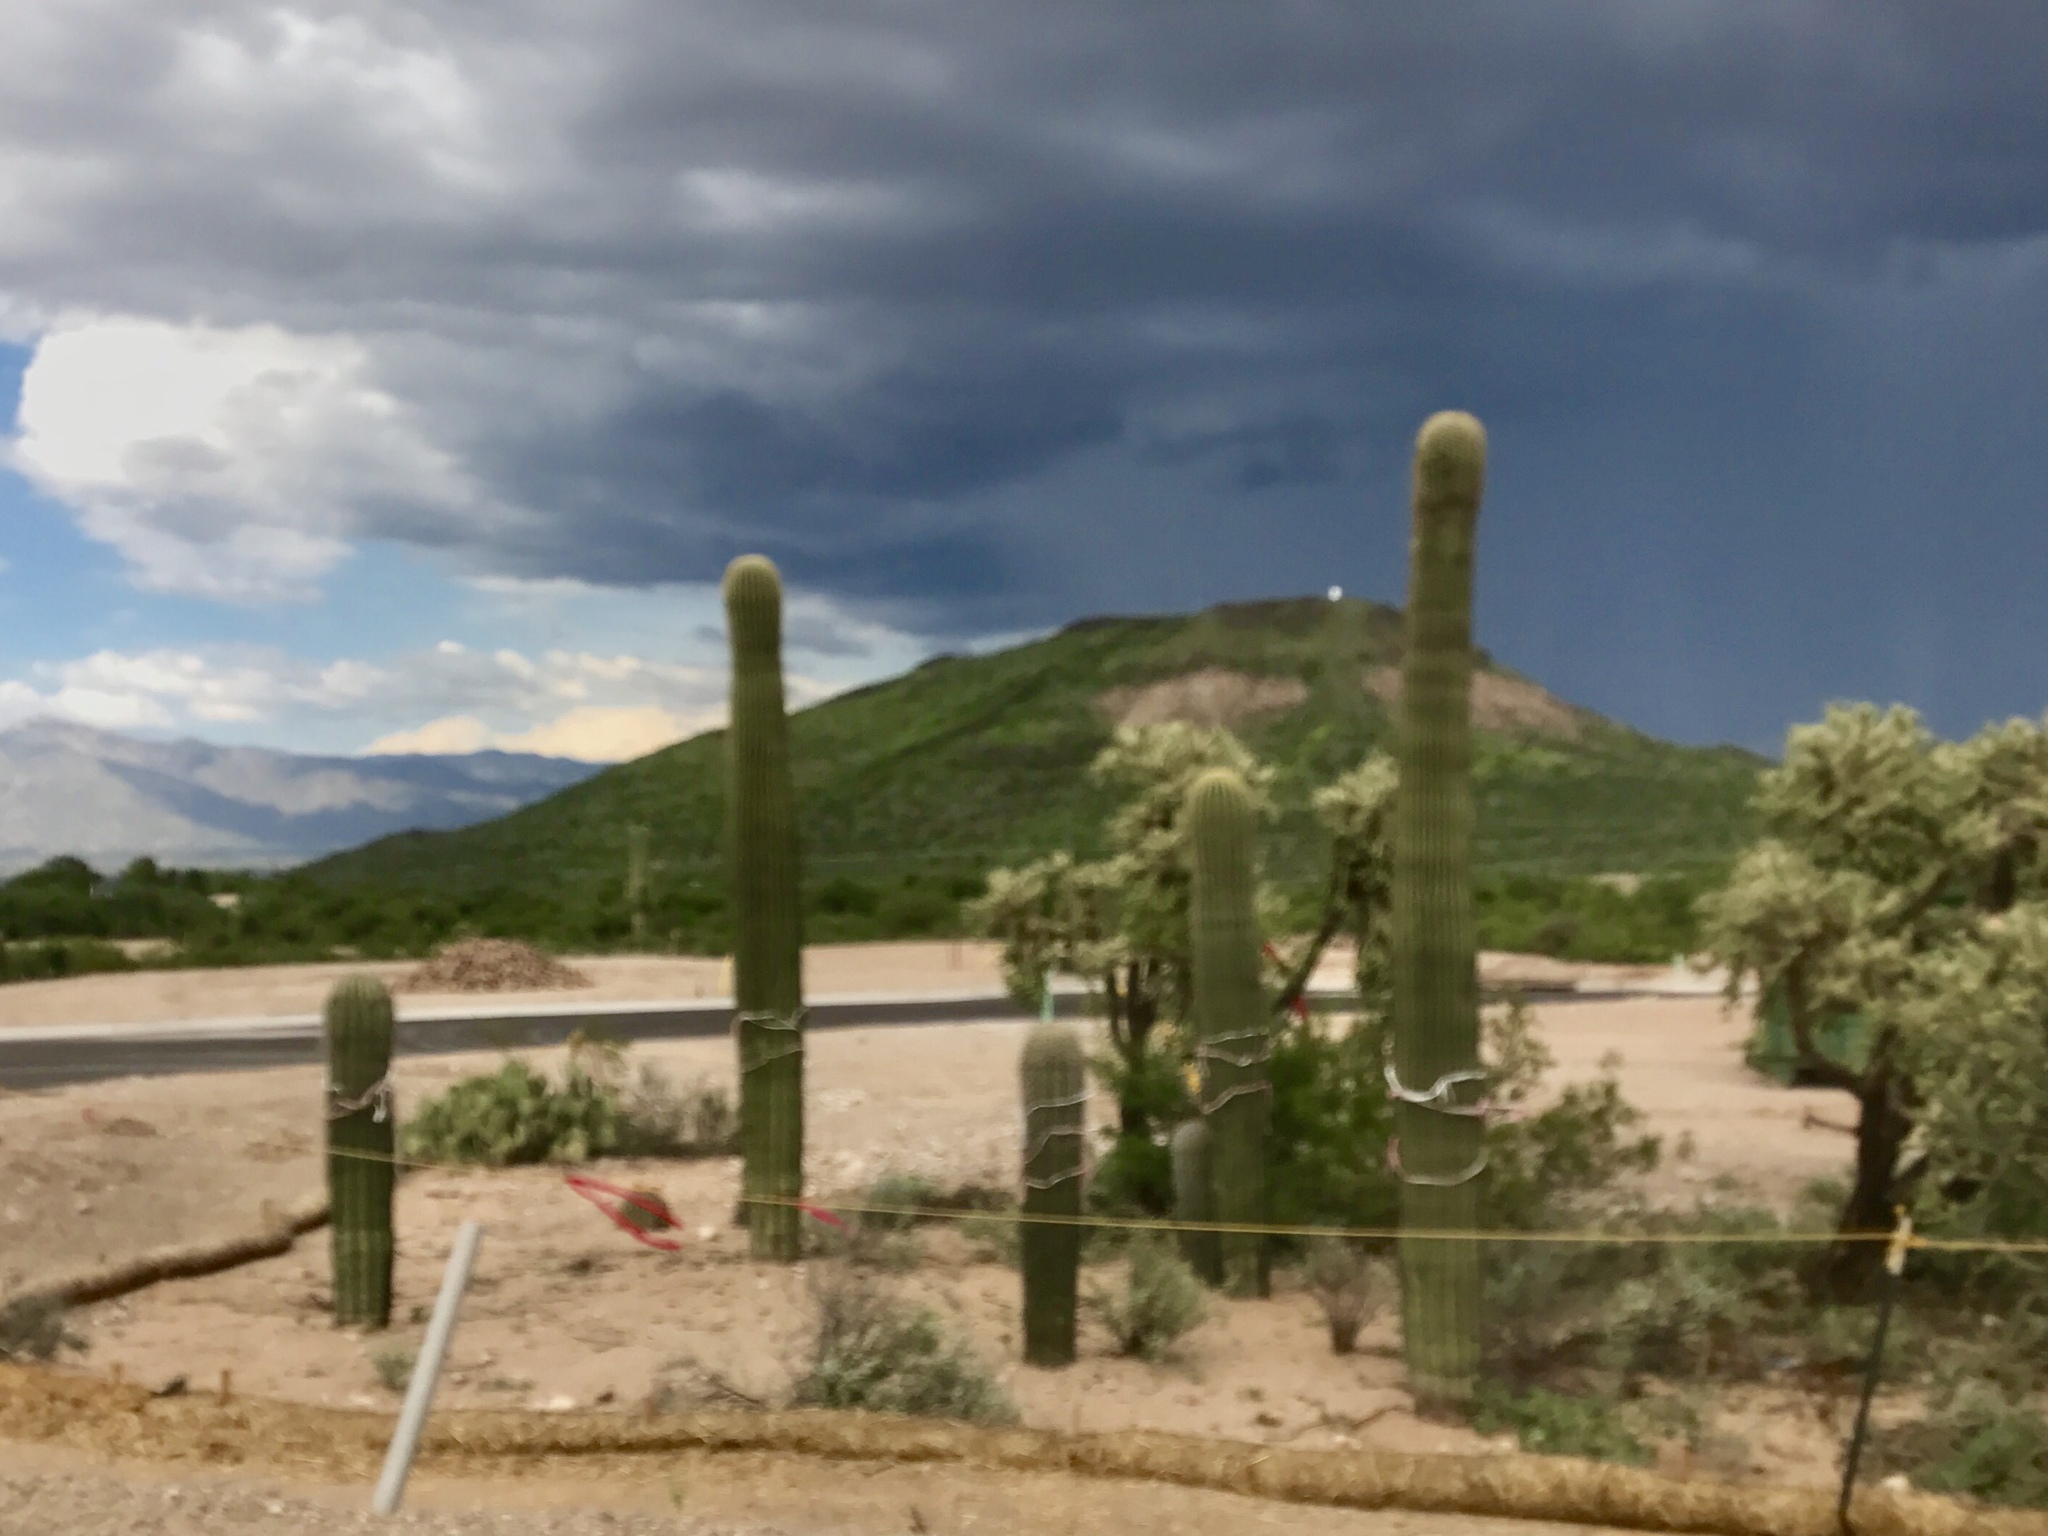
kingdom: Plantae
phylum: Tracheophyta
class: Magnoliopsida
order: Caryophyllales
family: Cactaceae
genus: Carnegiea
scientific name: Carnegiea gigantea
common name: Saguaro
